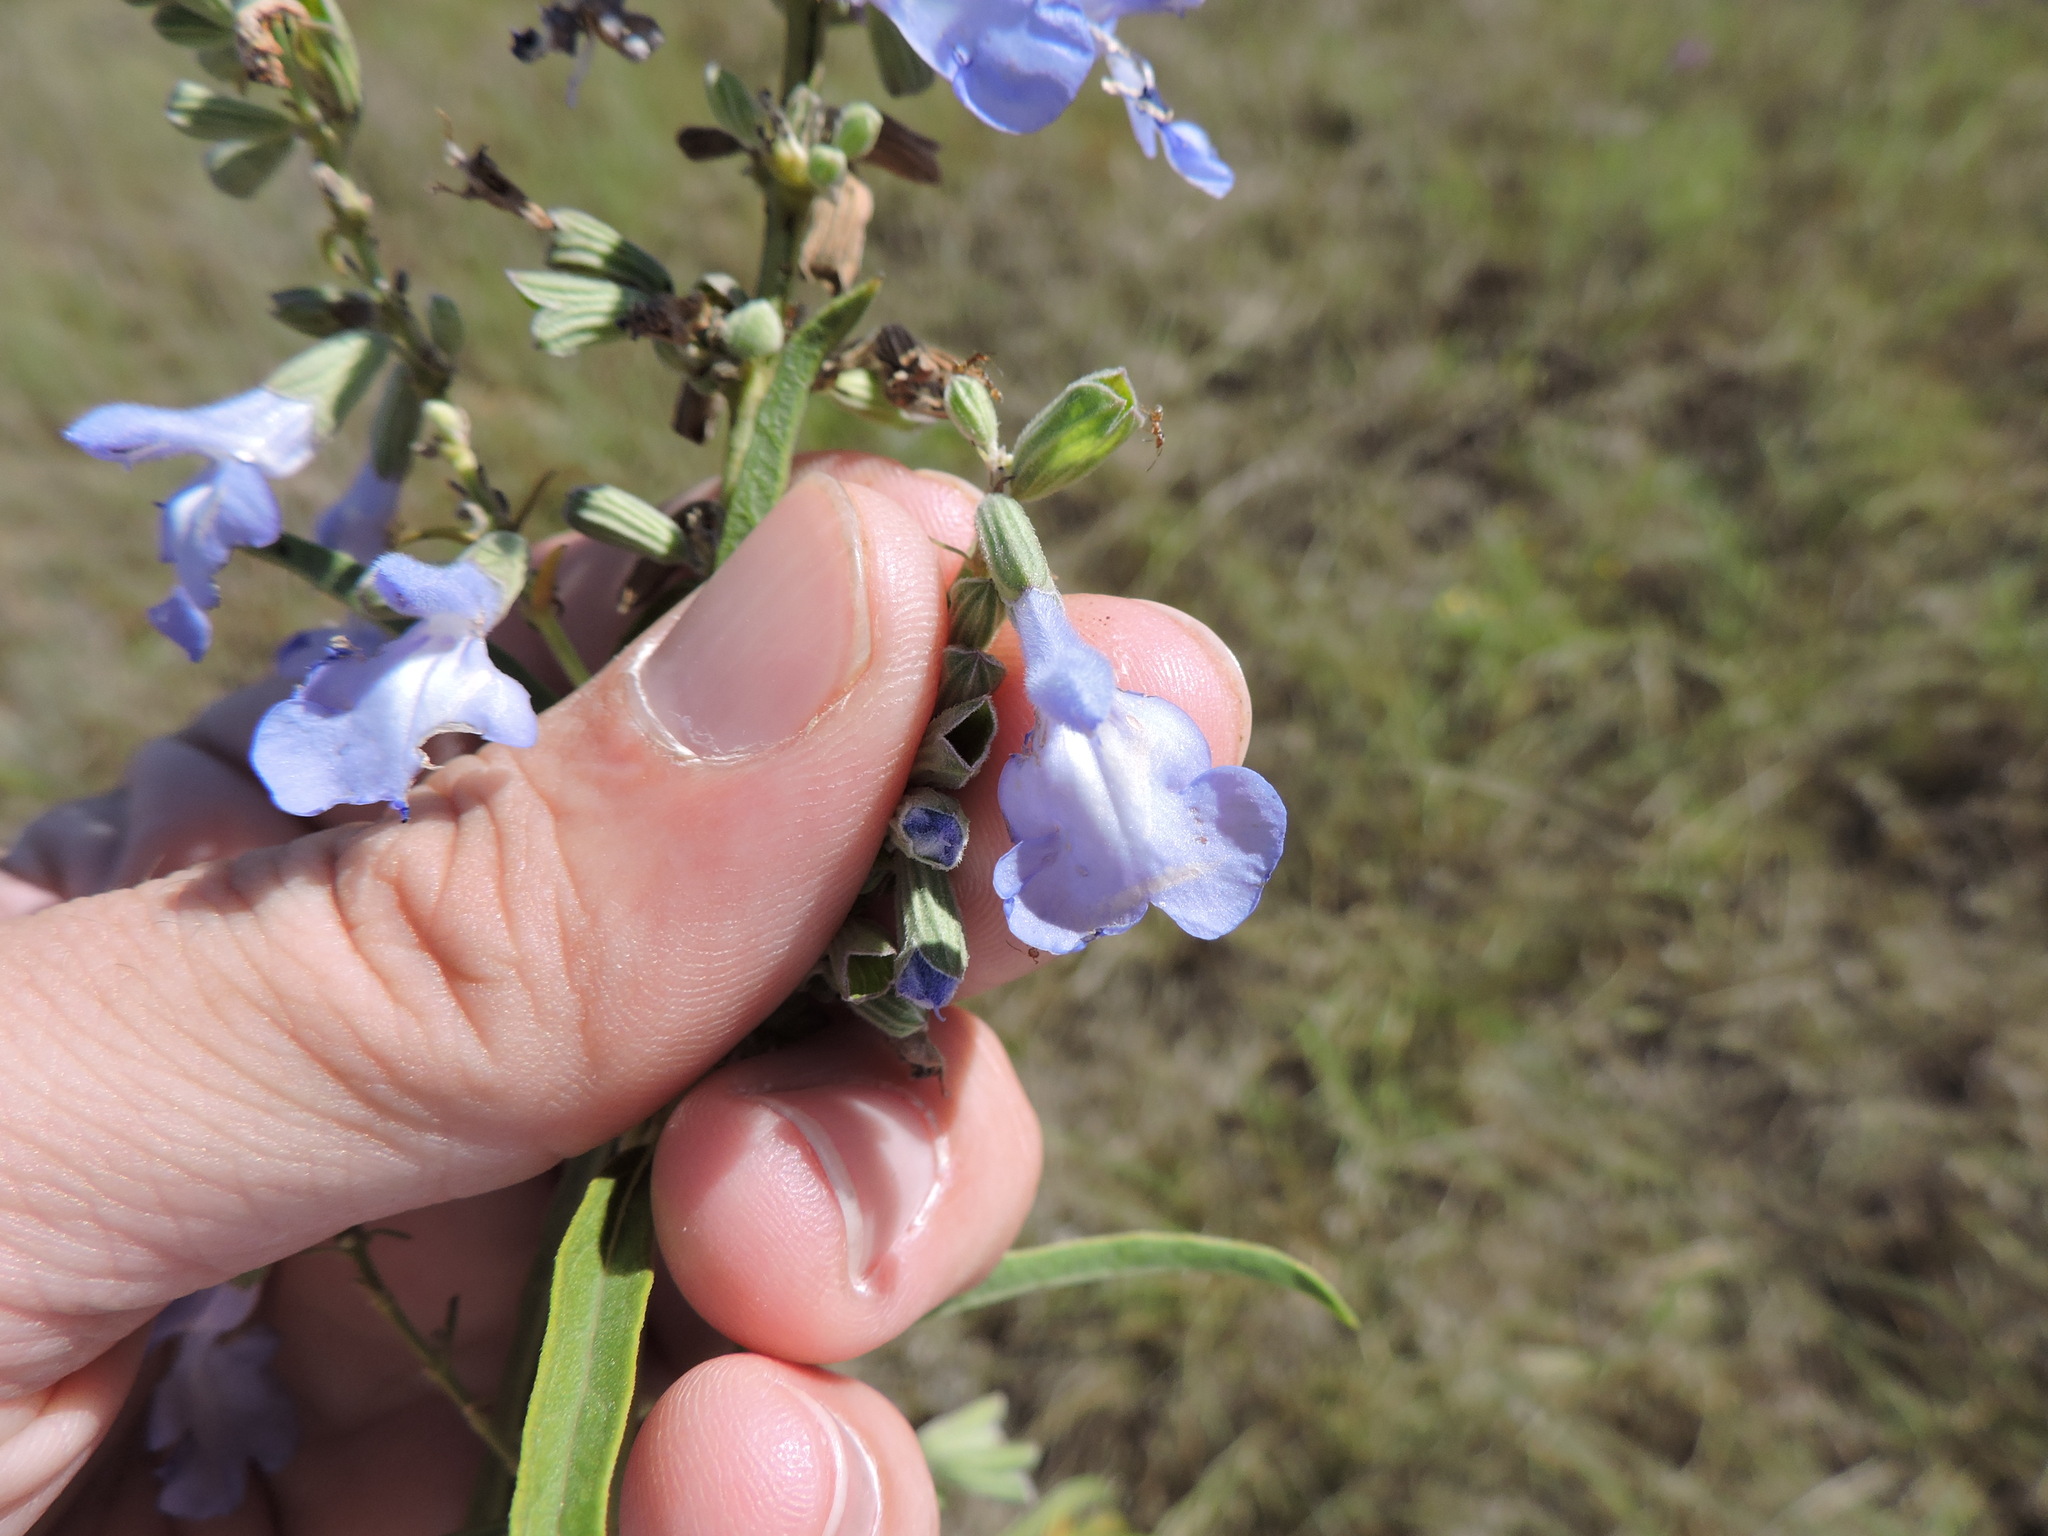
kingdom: Plantae
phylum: Tracheophyta
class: Magnoliopsida
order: Lamiales
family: Lamiaceae
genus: Salvia
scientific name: Salvia azurea
